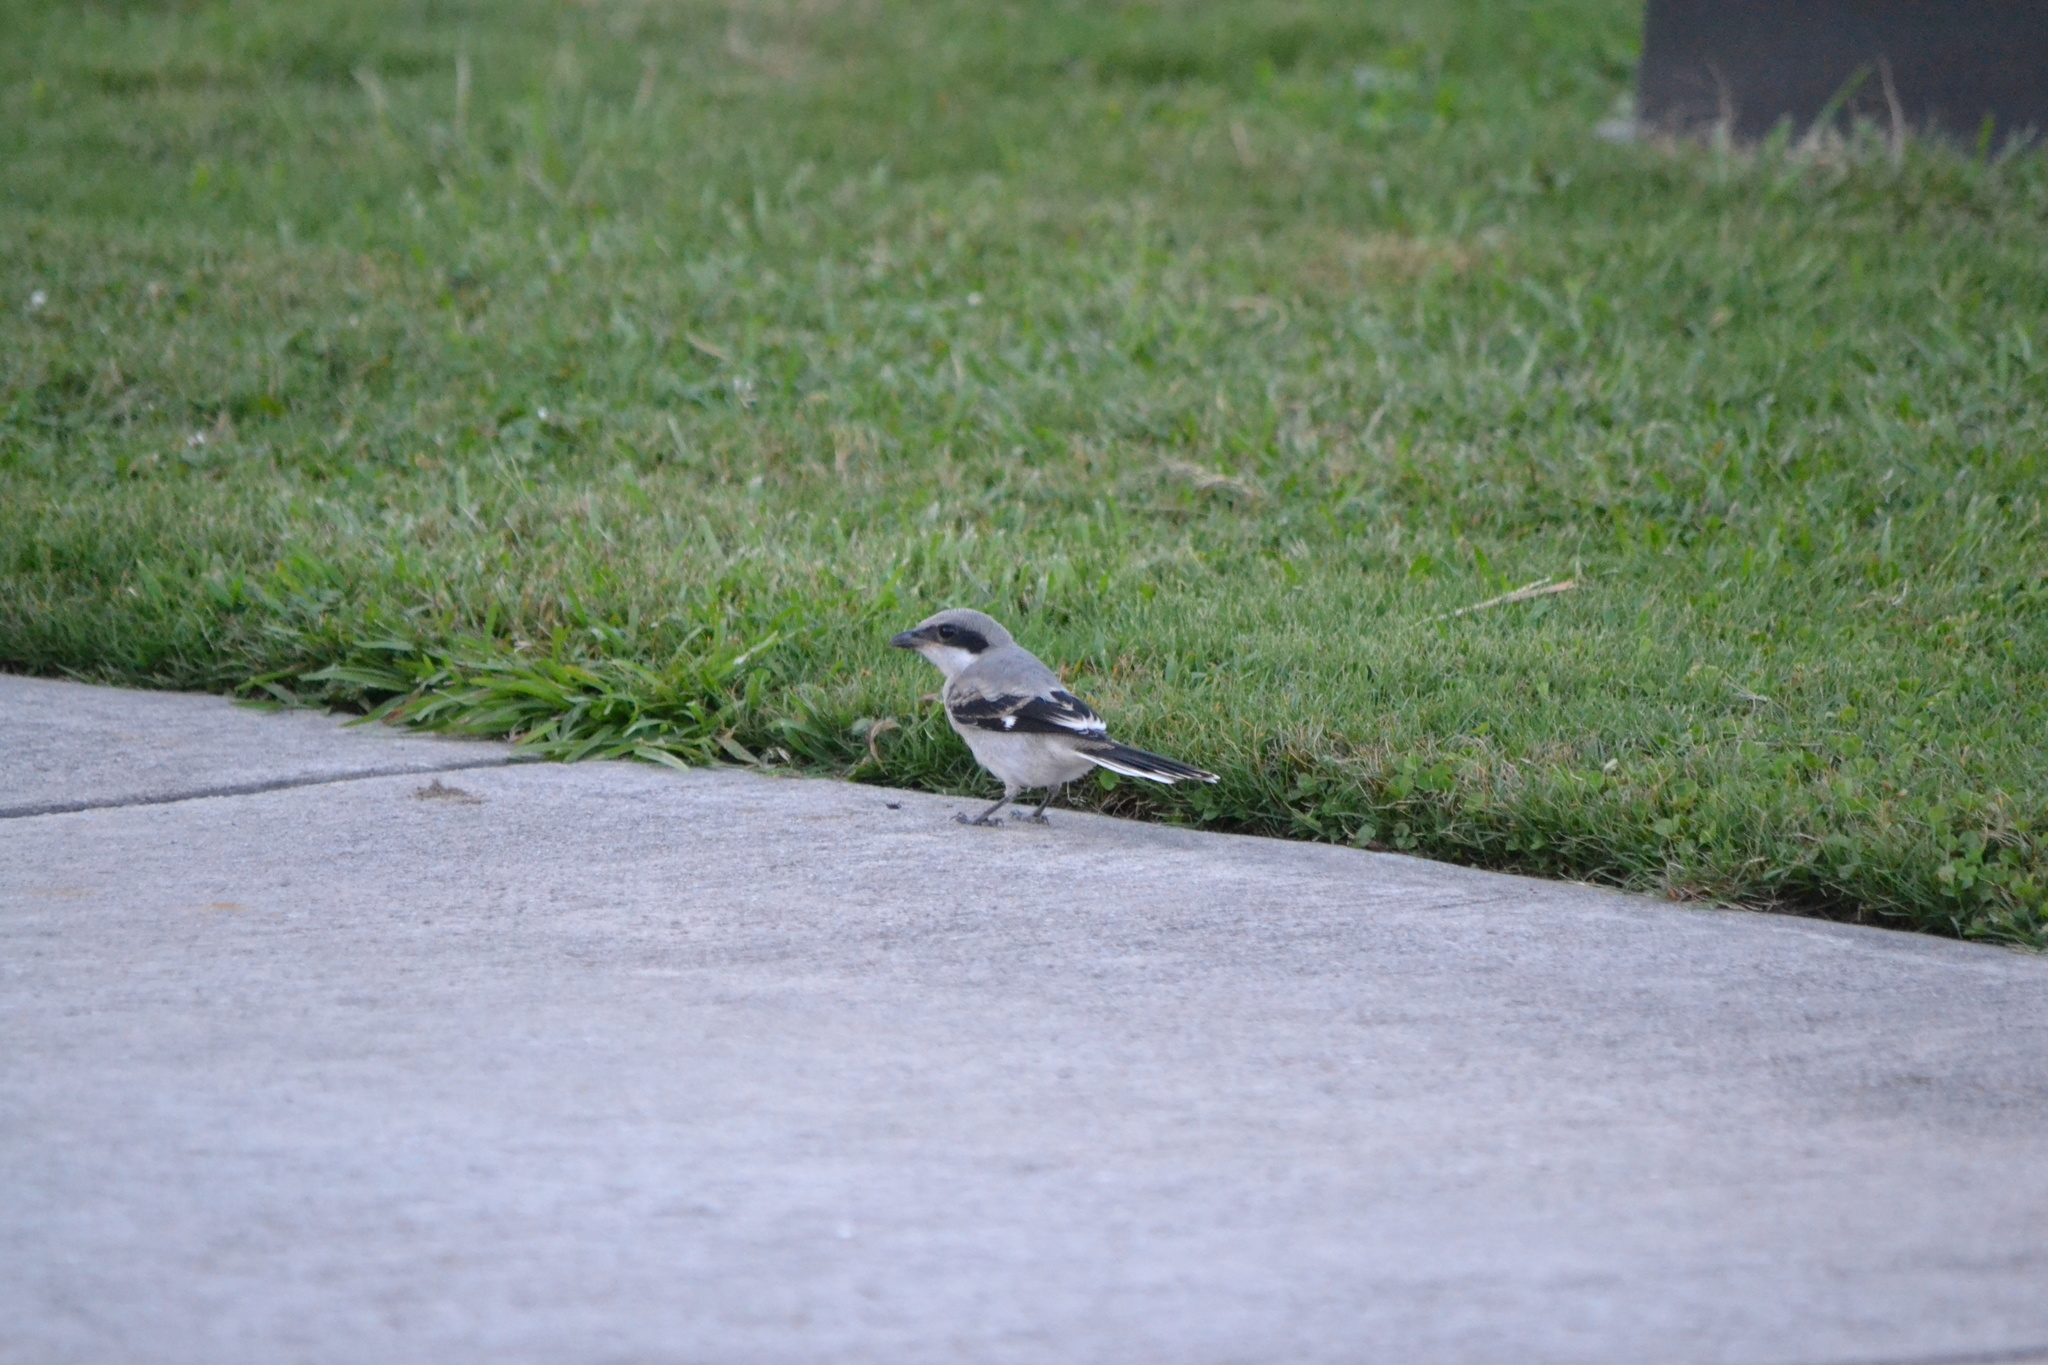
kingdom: Animalia
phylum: Chordata
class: Aves
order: Passeriformes
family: Laniidae
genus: Lanius
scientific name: Lanius ludovicianus
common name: Loggerhead shrike
